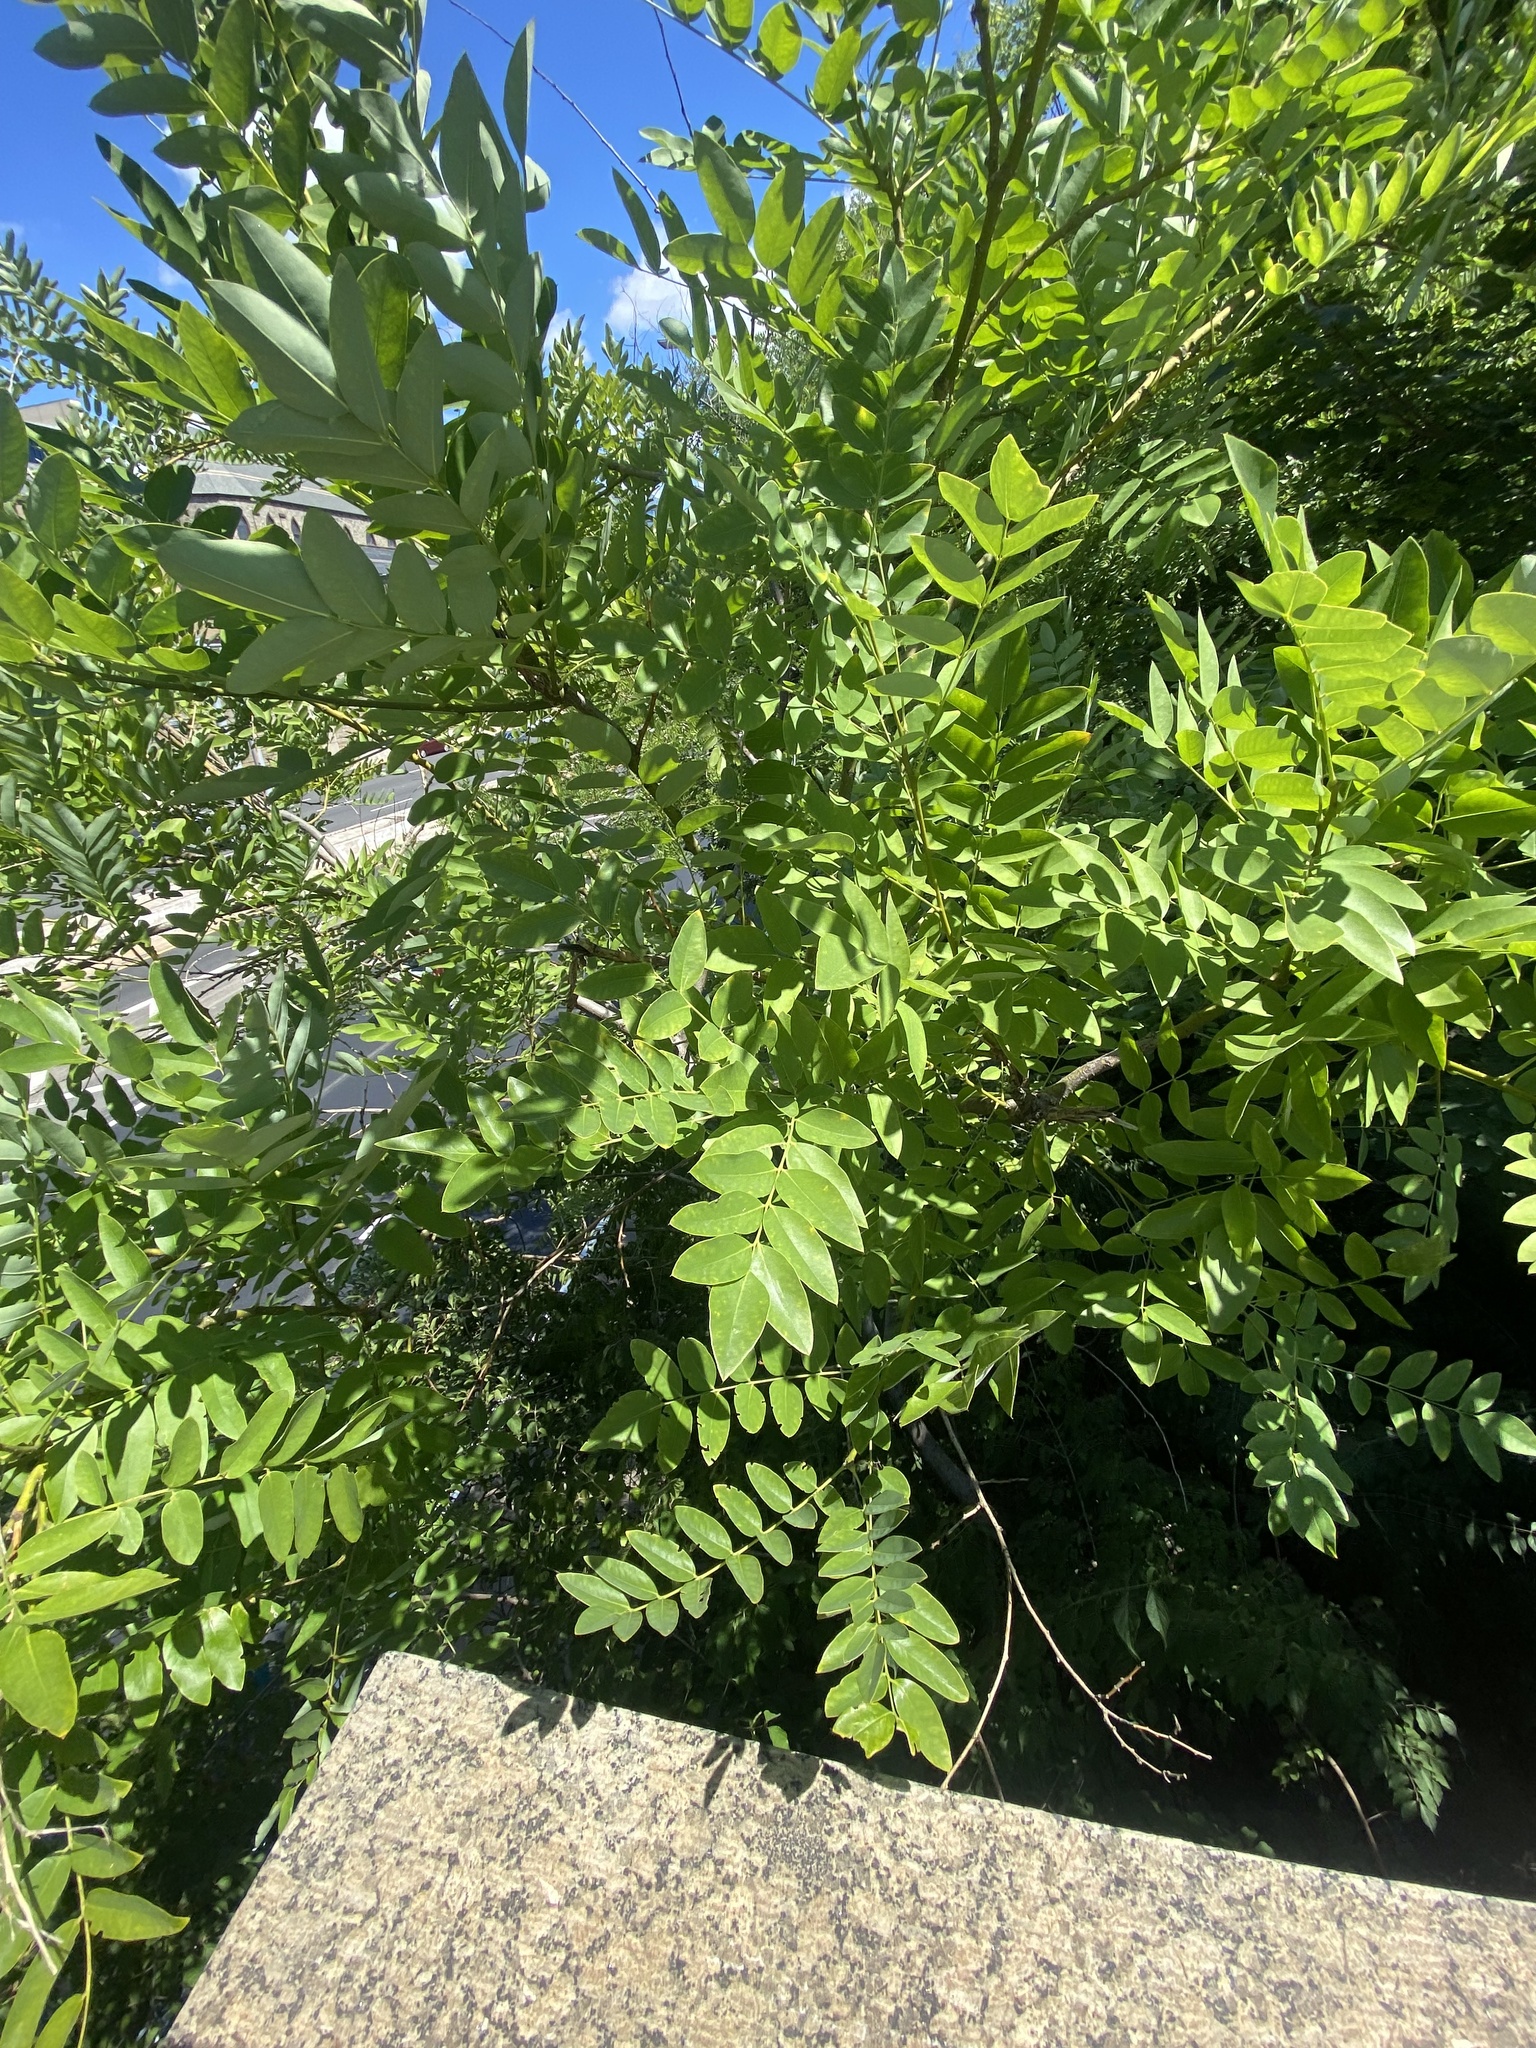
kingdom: Plantae
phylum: Tracheophyta
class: Magnoliopsida
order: Fabales
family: Fabaceae
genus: Styphnolobium
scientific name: Styphnolobium japonicum
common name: Chinese scholartree
